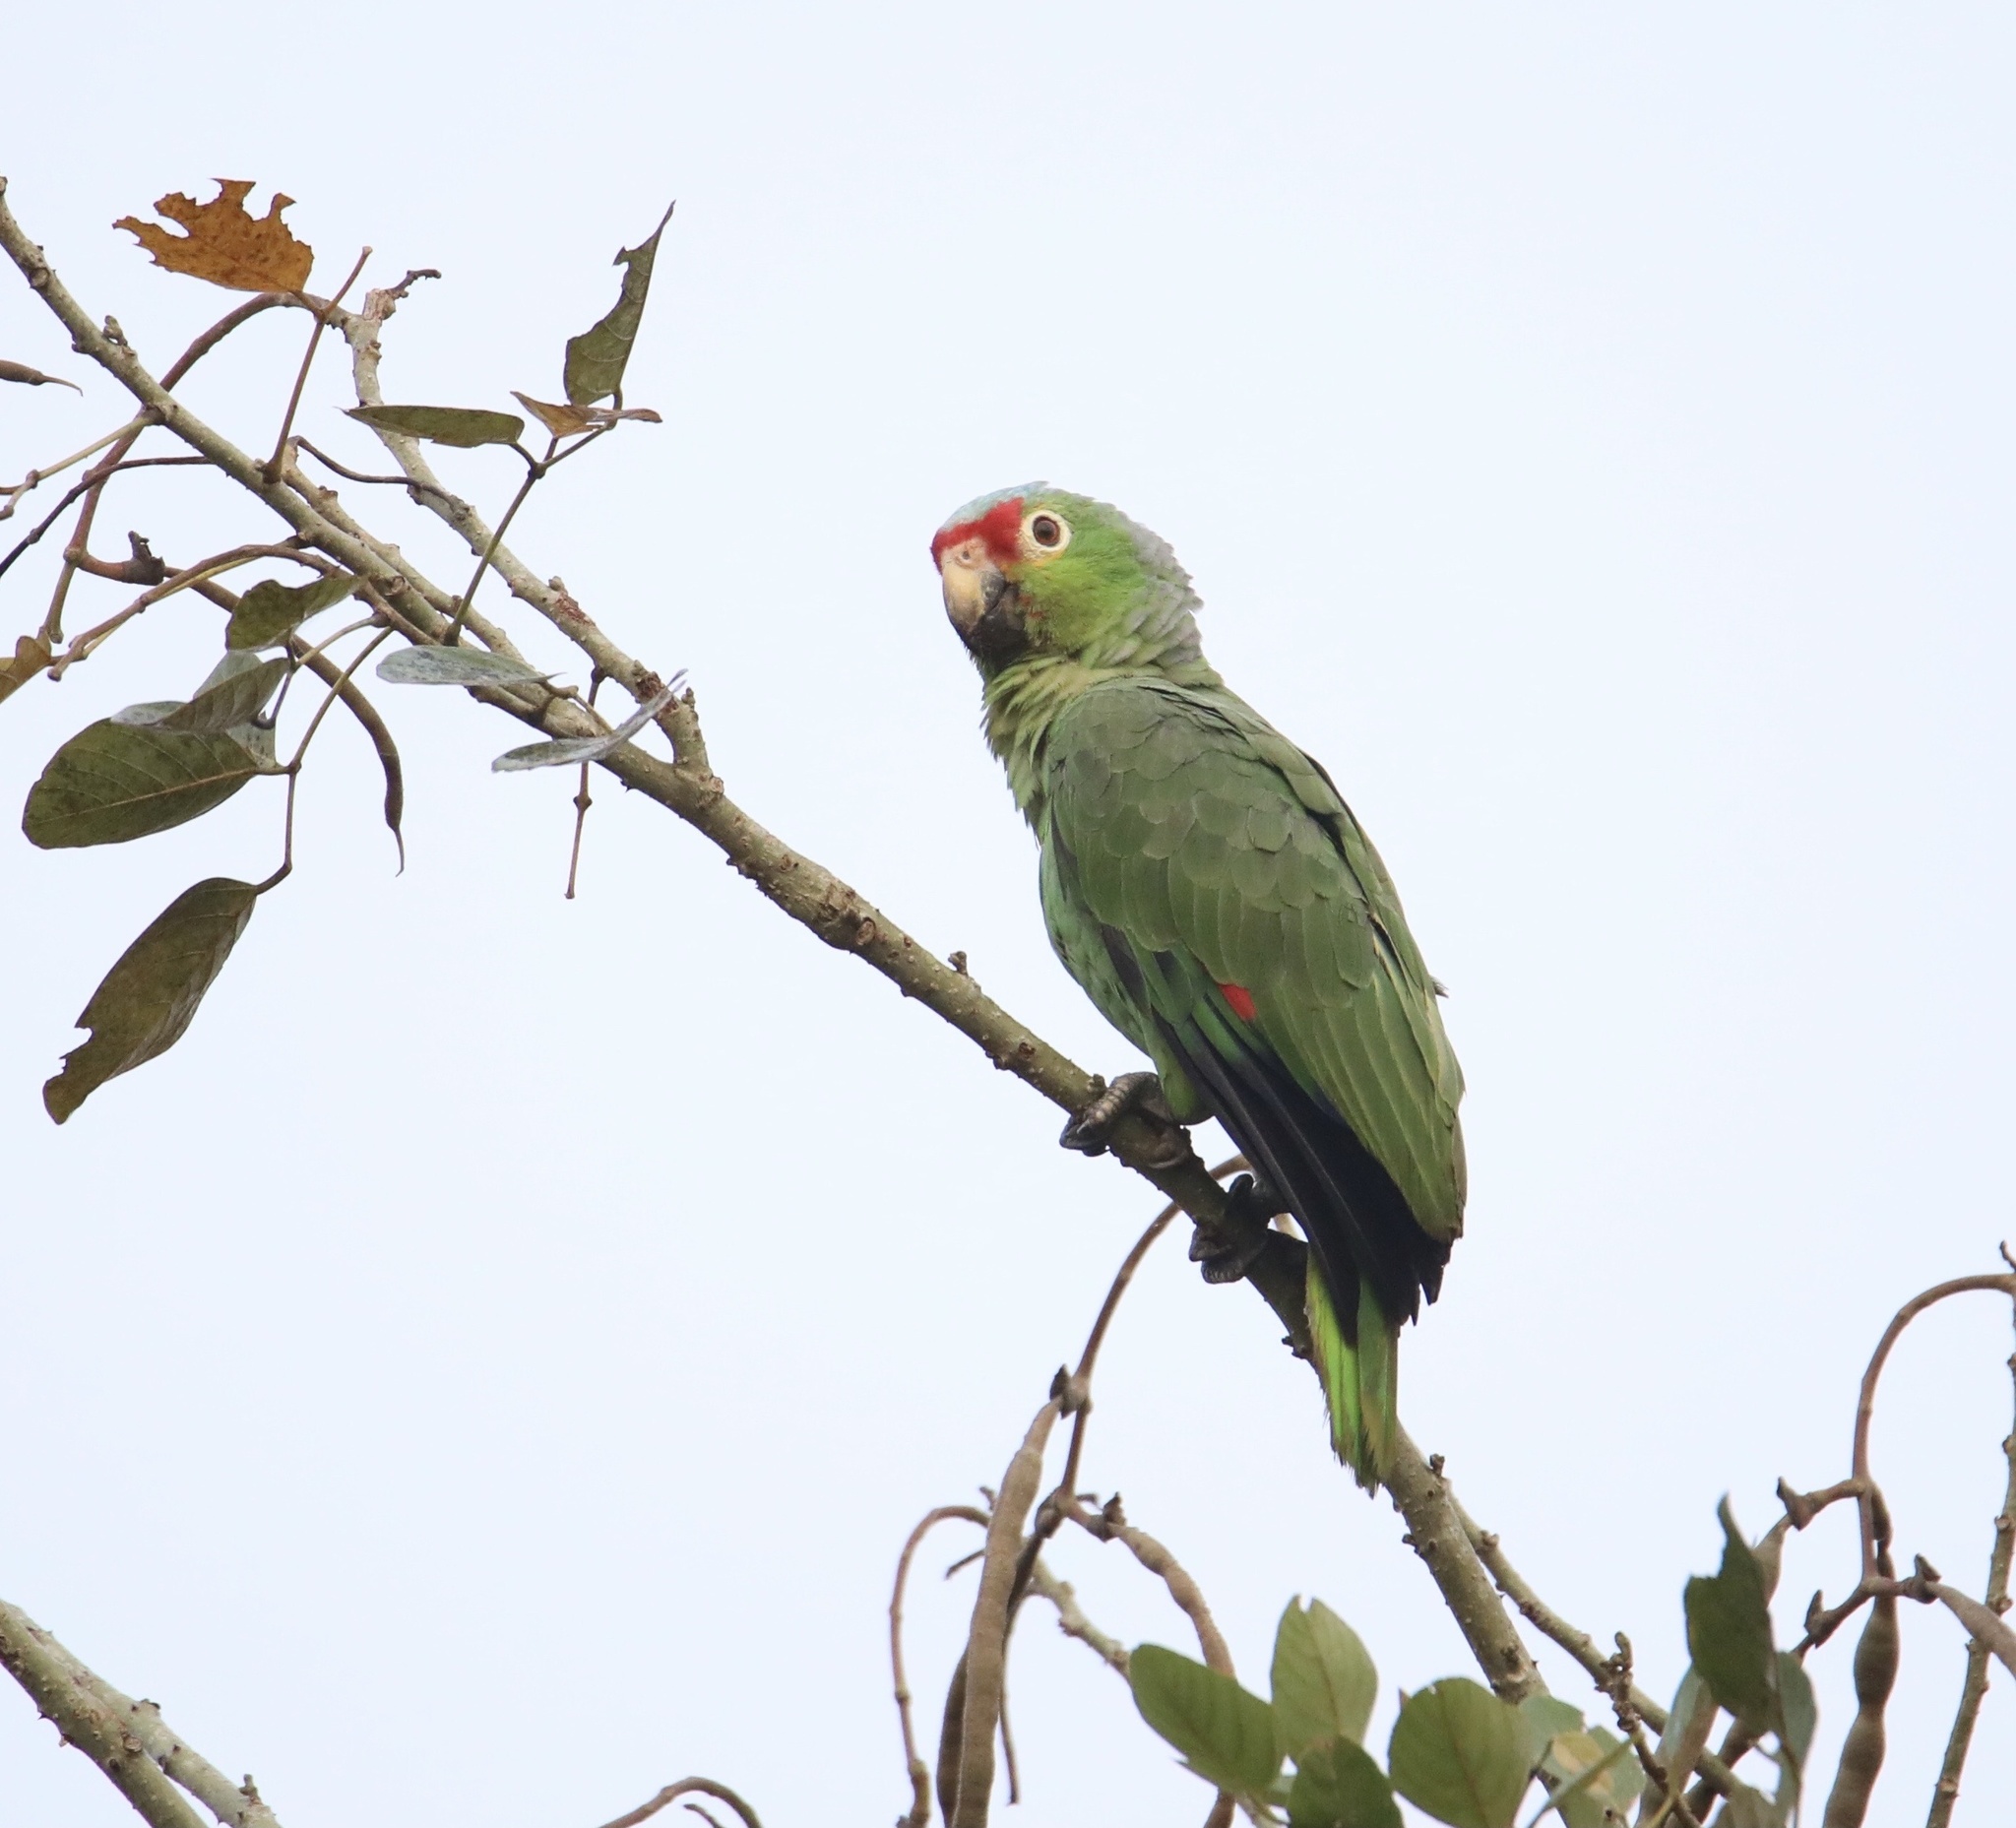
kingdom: Animalia
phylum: Chordata
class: Aves
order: Psittaciformes
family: Psittacidae
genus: Amazona
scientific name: Amazona autumnalis
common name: Red-lored amazon
